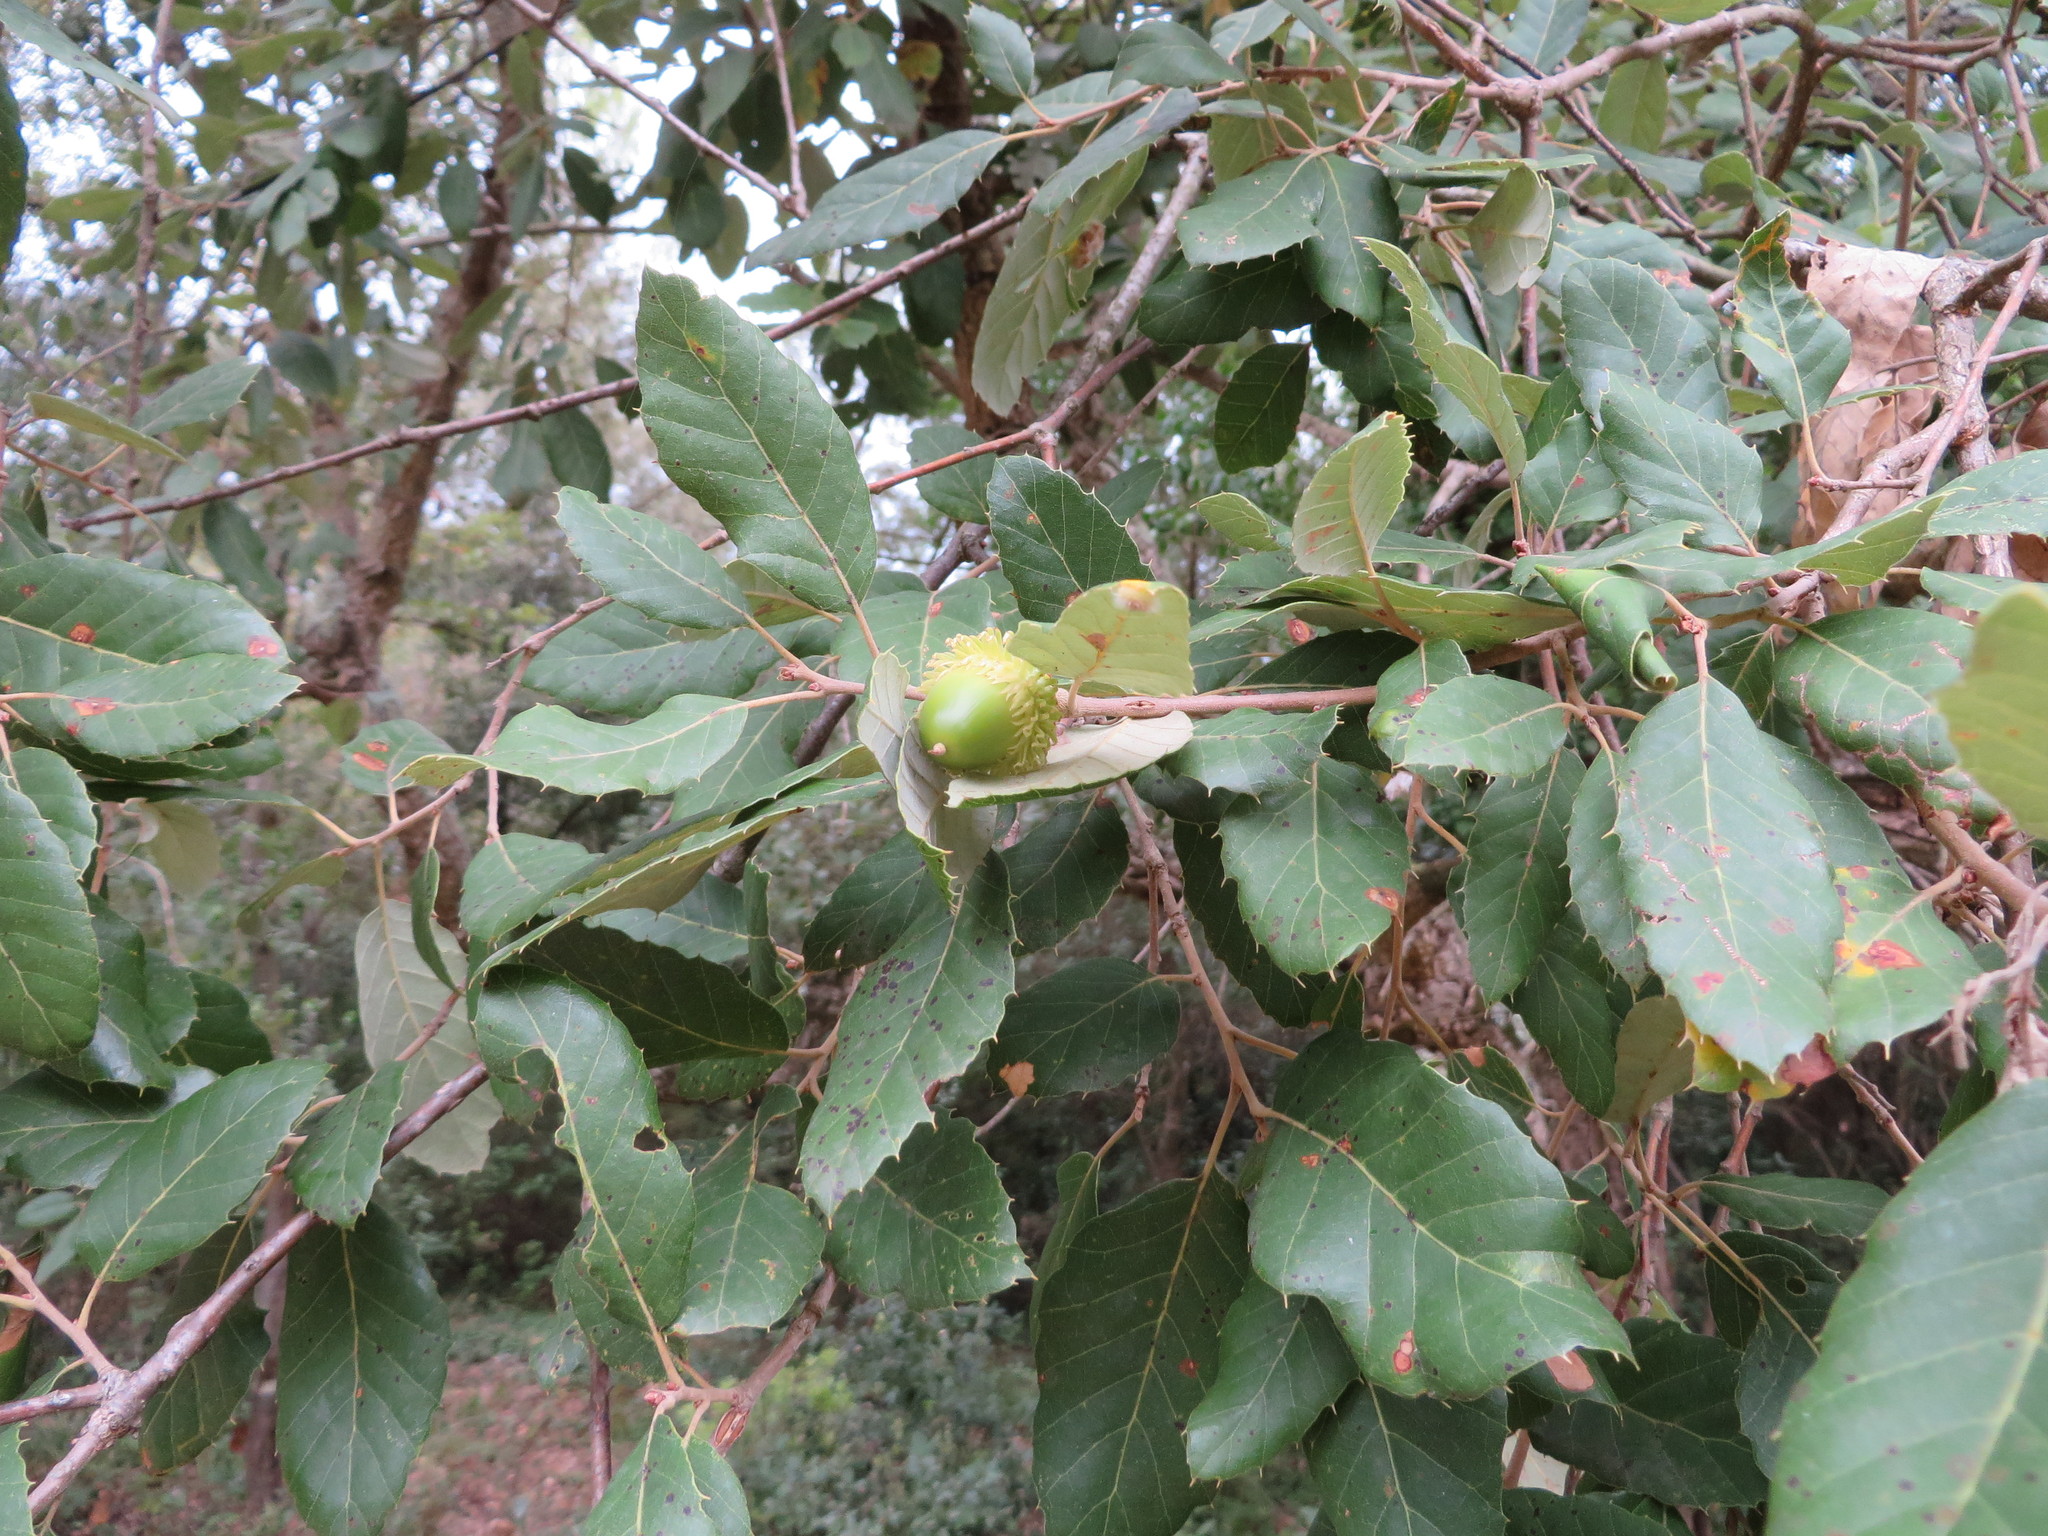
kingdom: Plantae
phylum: Tracheophyta
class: Magnoliopsida
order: Fagales
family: Fagaceae
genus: Quercus
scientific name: Quercus suber
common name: Cork oak
